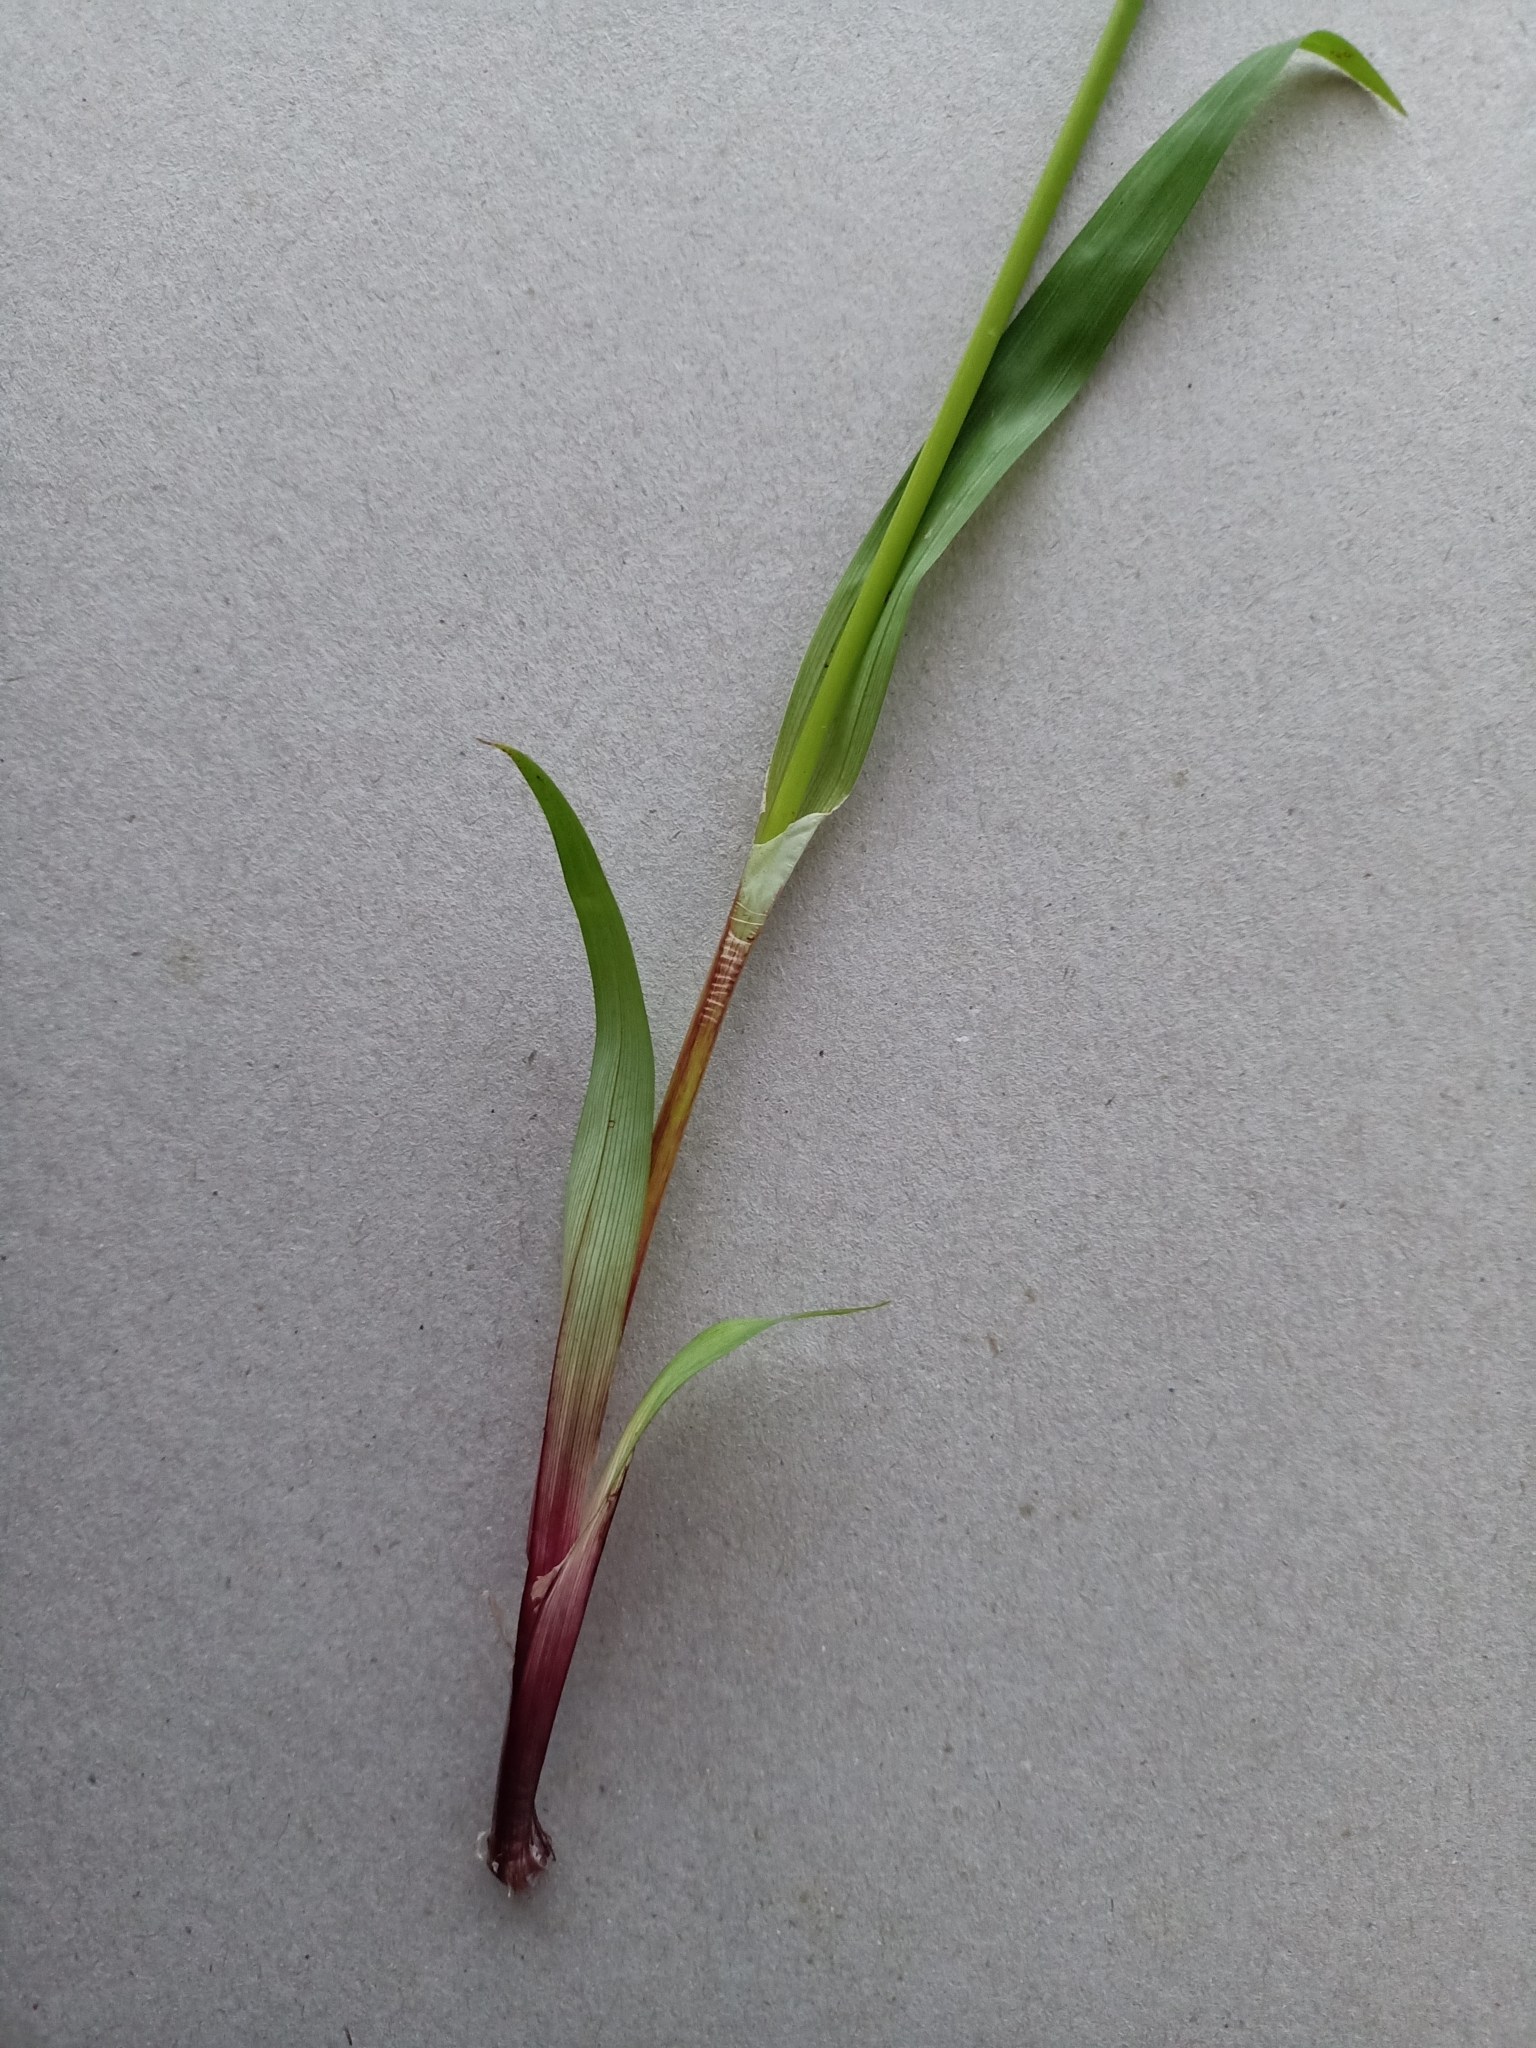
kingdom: Plantae
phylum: Tracheophyta
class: Liliopsida
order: Poales
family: Cyperaceae
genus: Cyperus
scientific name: Cyperus albostriatus
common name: Dwarf umbrella-grass
